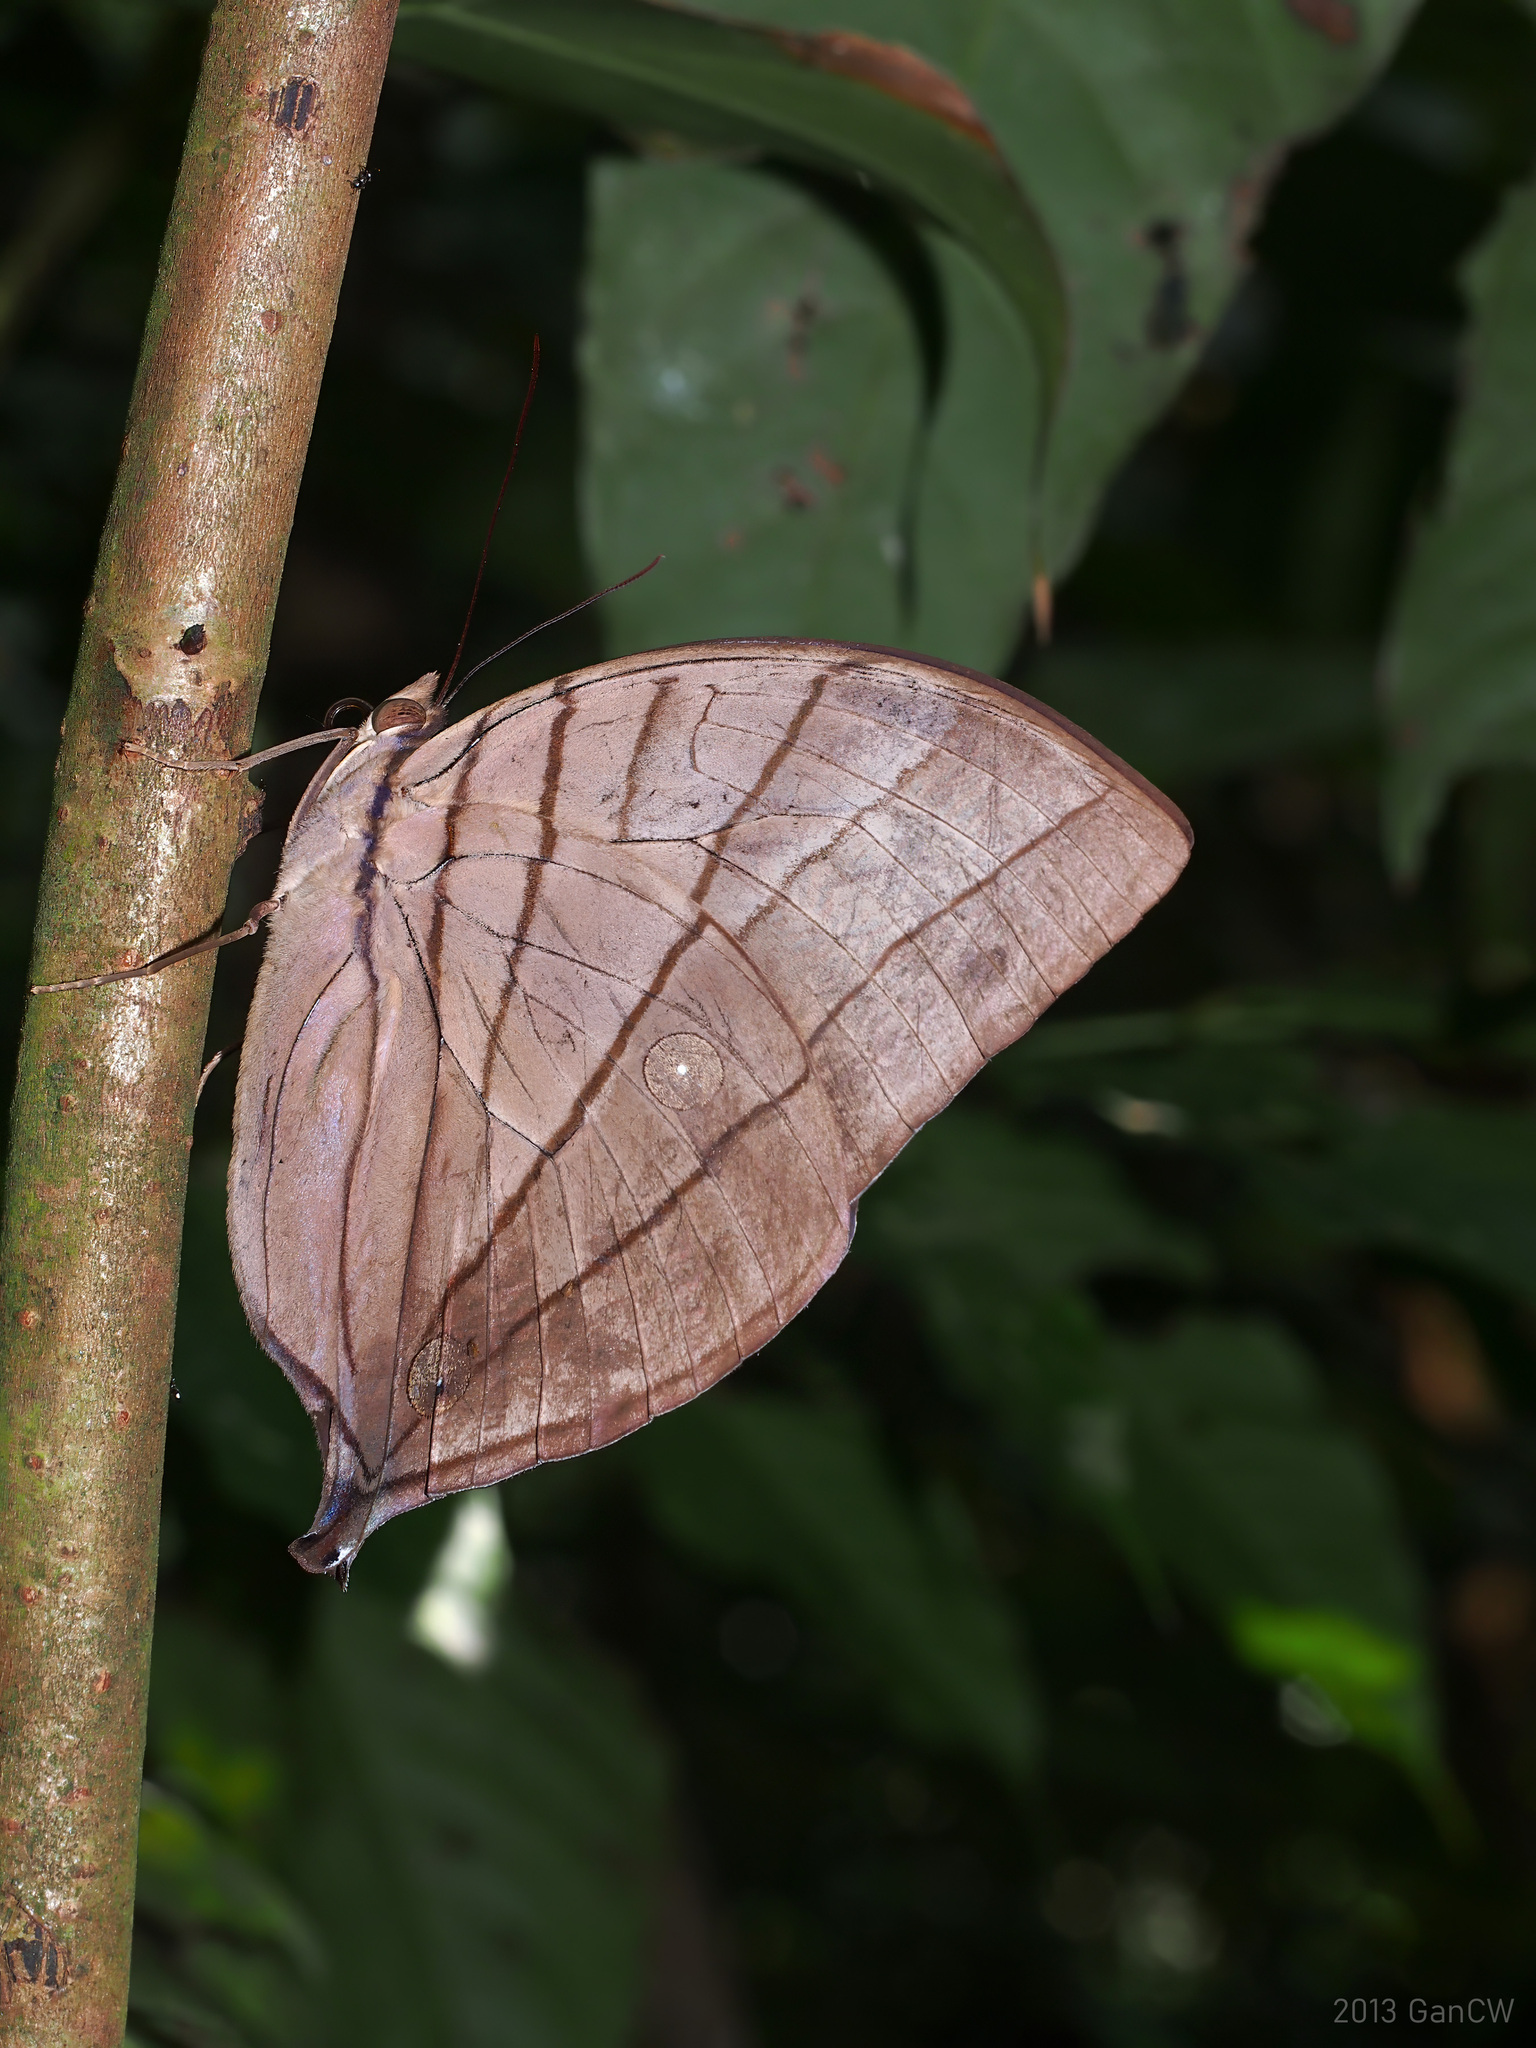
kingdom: Animalia
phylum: Arthropoda
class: Insecta
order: Lepidoptera
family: Nymphalidae
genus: Amathuxidia
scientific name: Amathuxidia amythaon
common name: Koh-i-noor
